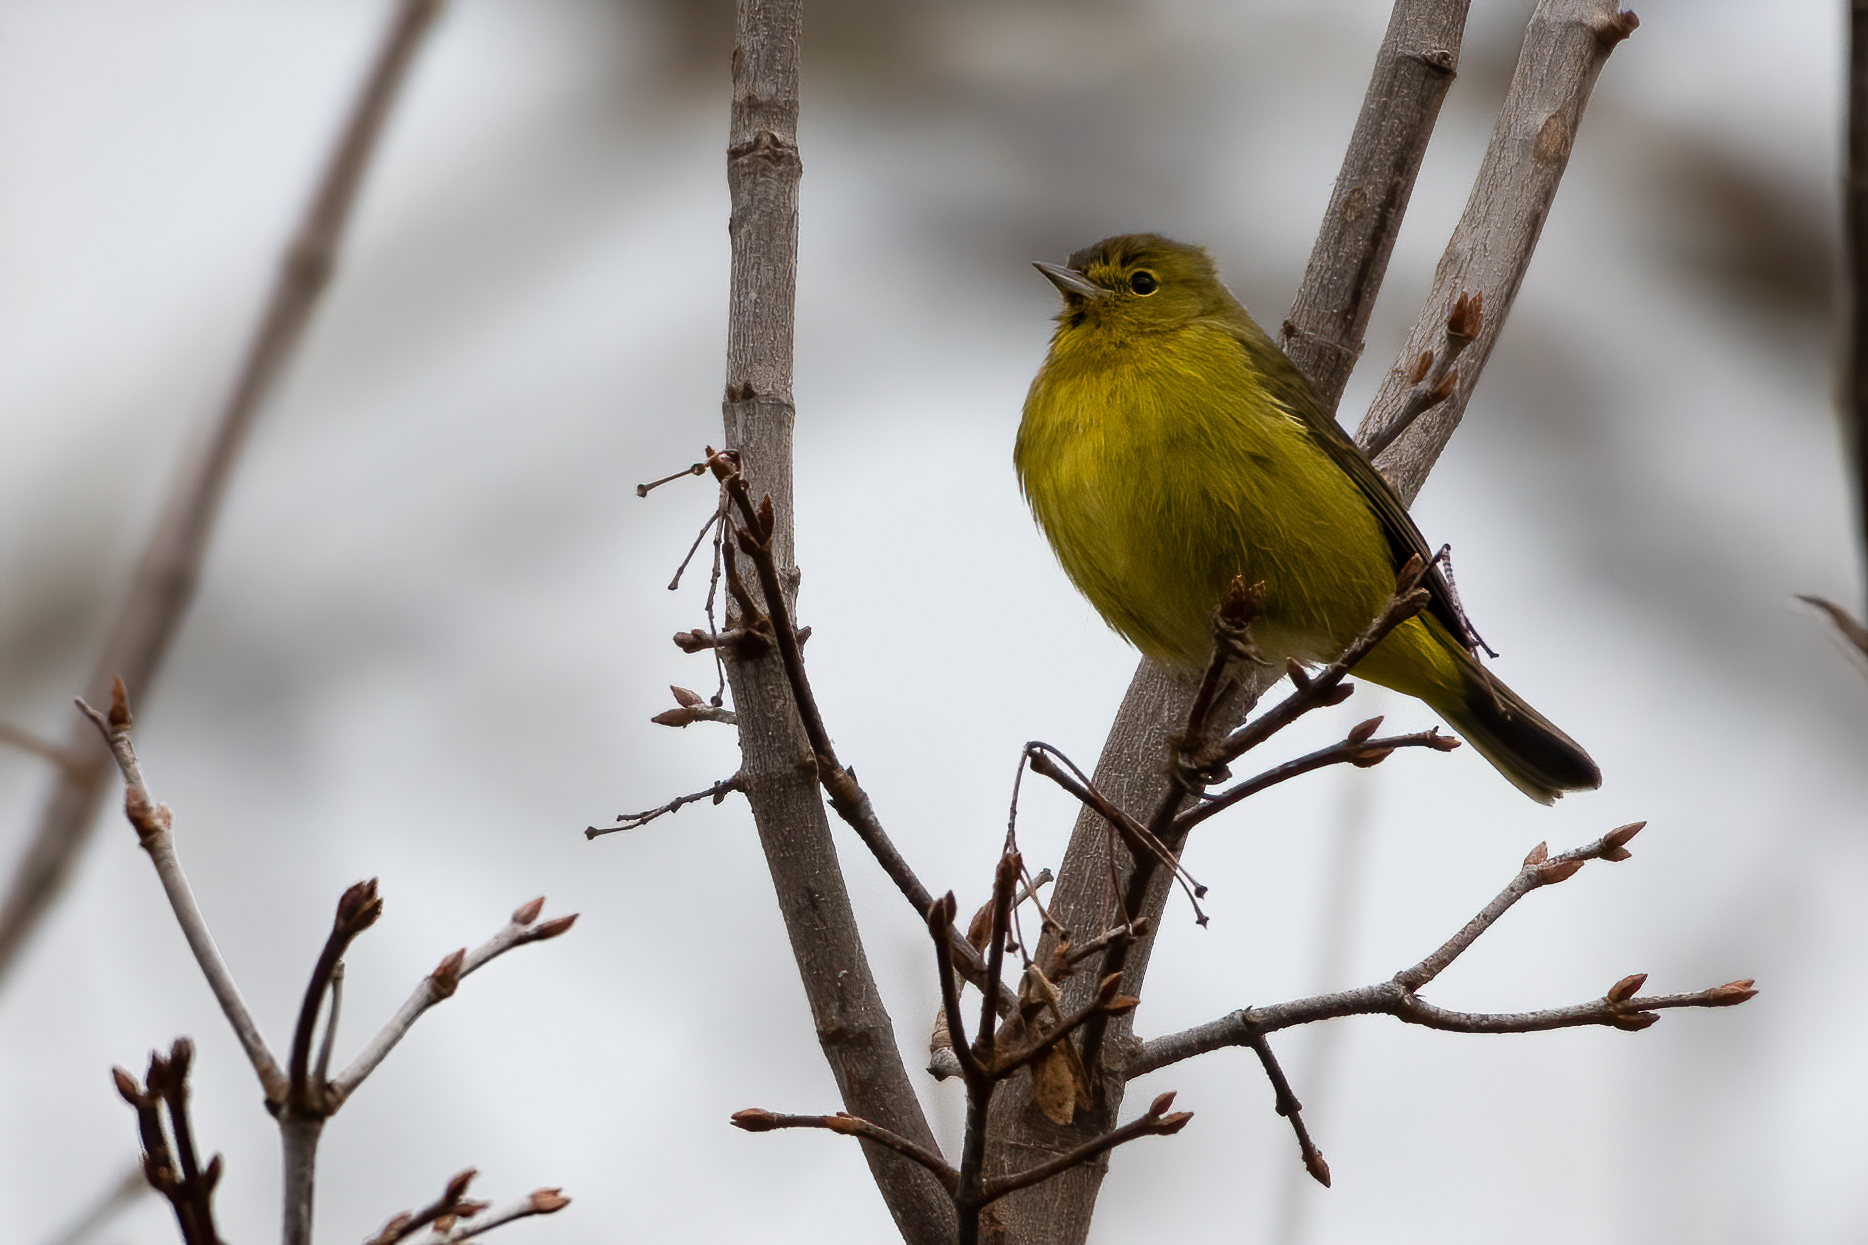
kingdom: Animalia
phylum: Chordata
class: Aves
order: Passeriformes
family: Parulidae
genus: Leiothlypis
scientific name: Leiothlypis celata
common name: Orange-crowned warbler
